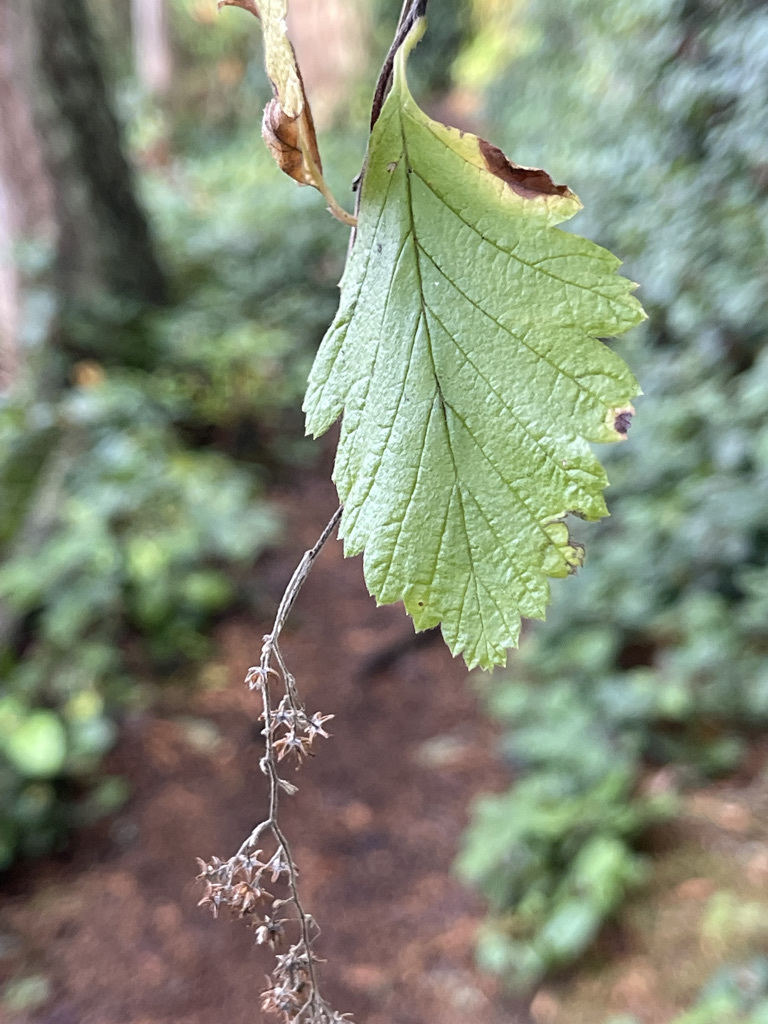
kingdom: Plantae
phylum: Tracheophyta
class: Magnoliopsida
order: Rosales
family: Rosaceae
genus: Holodiscus
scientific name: Holodiscus discolor
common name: Oceanspray
